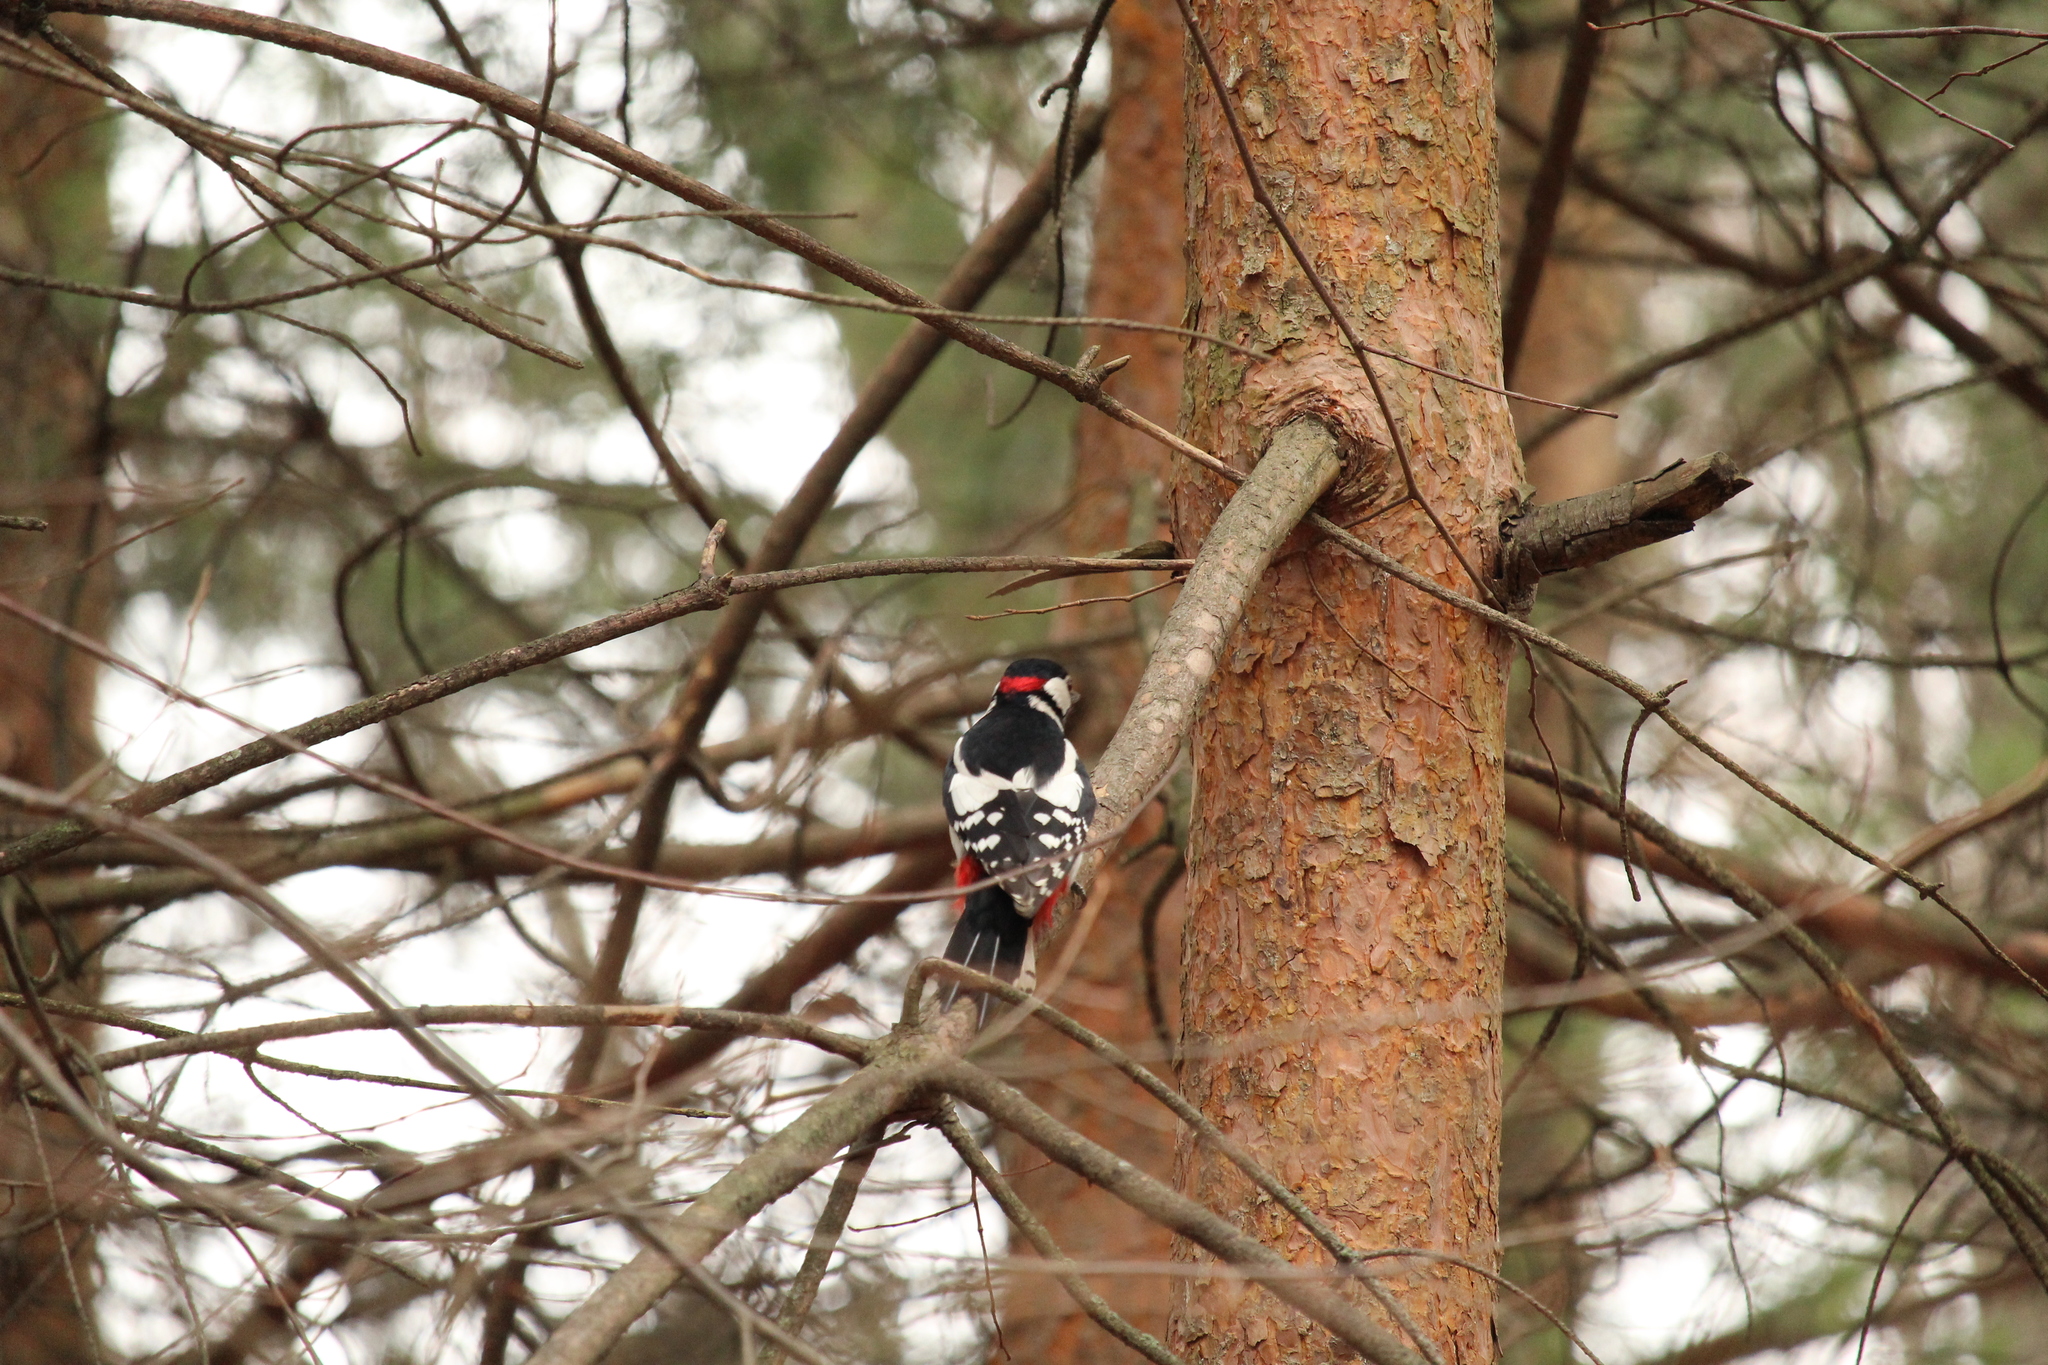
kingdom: Animalia
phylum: Chordata
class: Aves
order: Piciformes
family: Picidae
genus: Dendrocopos
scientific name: Dendrocopos major
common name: Great spotted woodpecker
